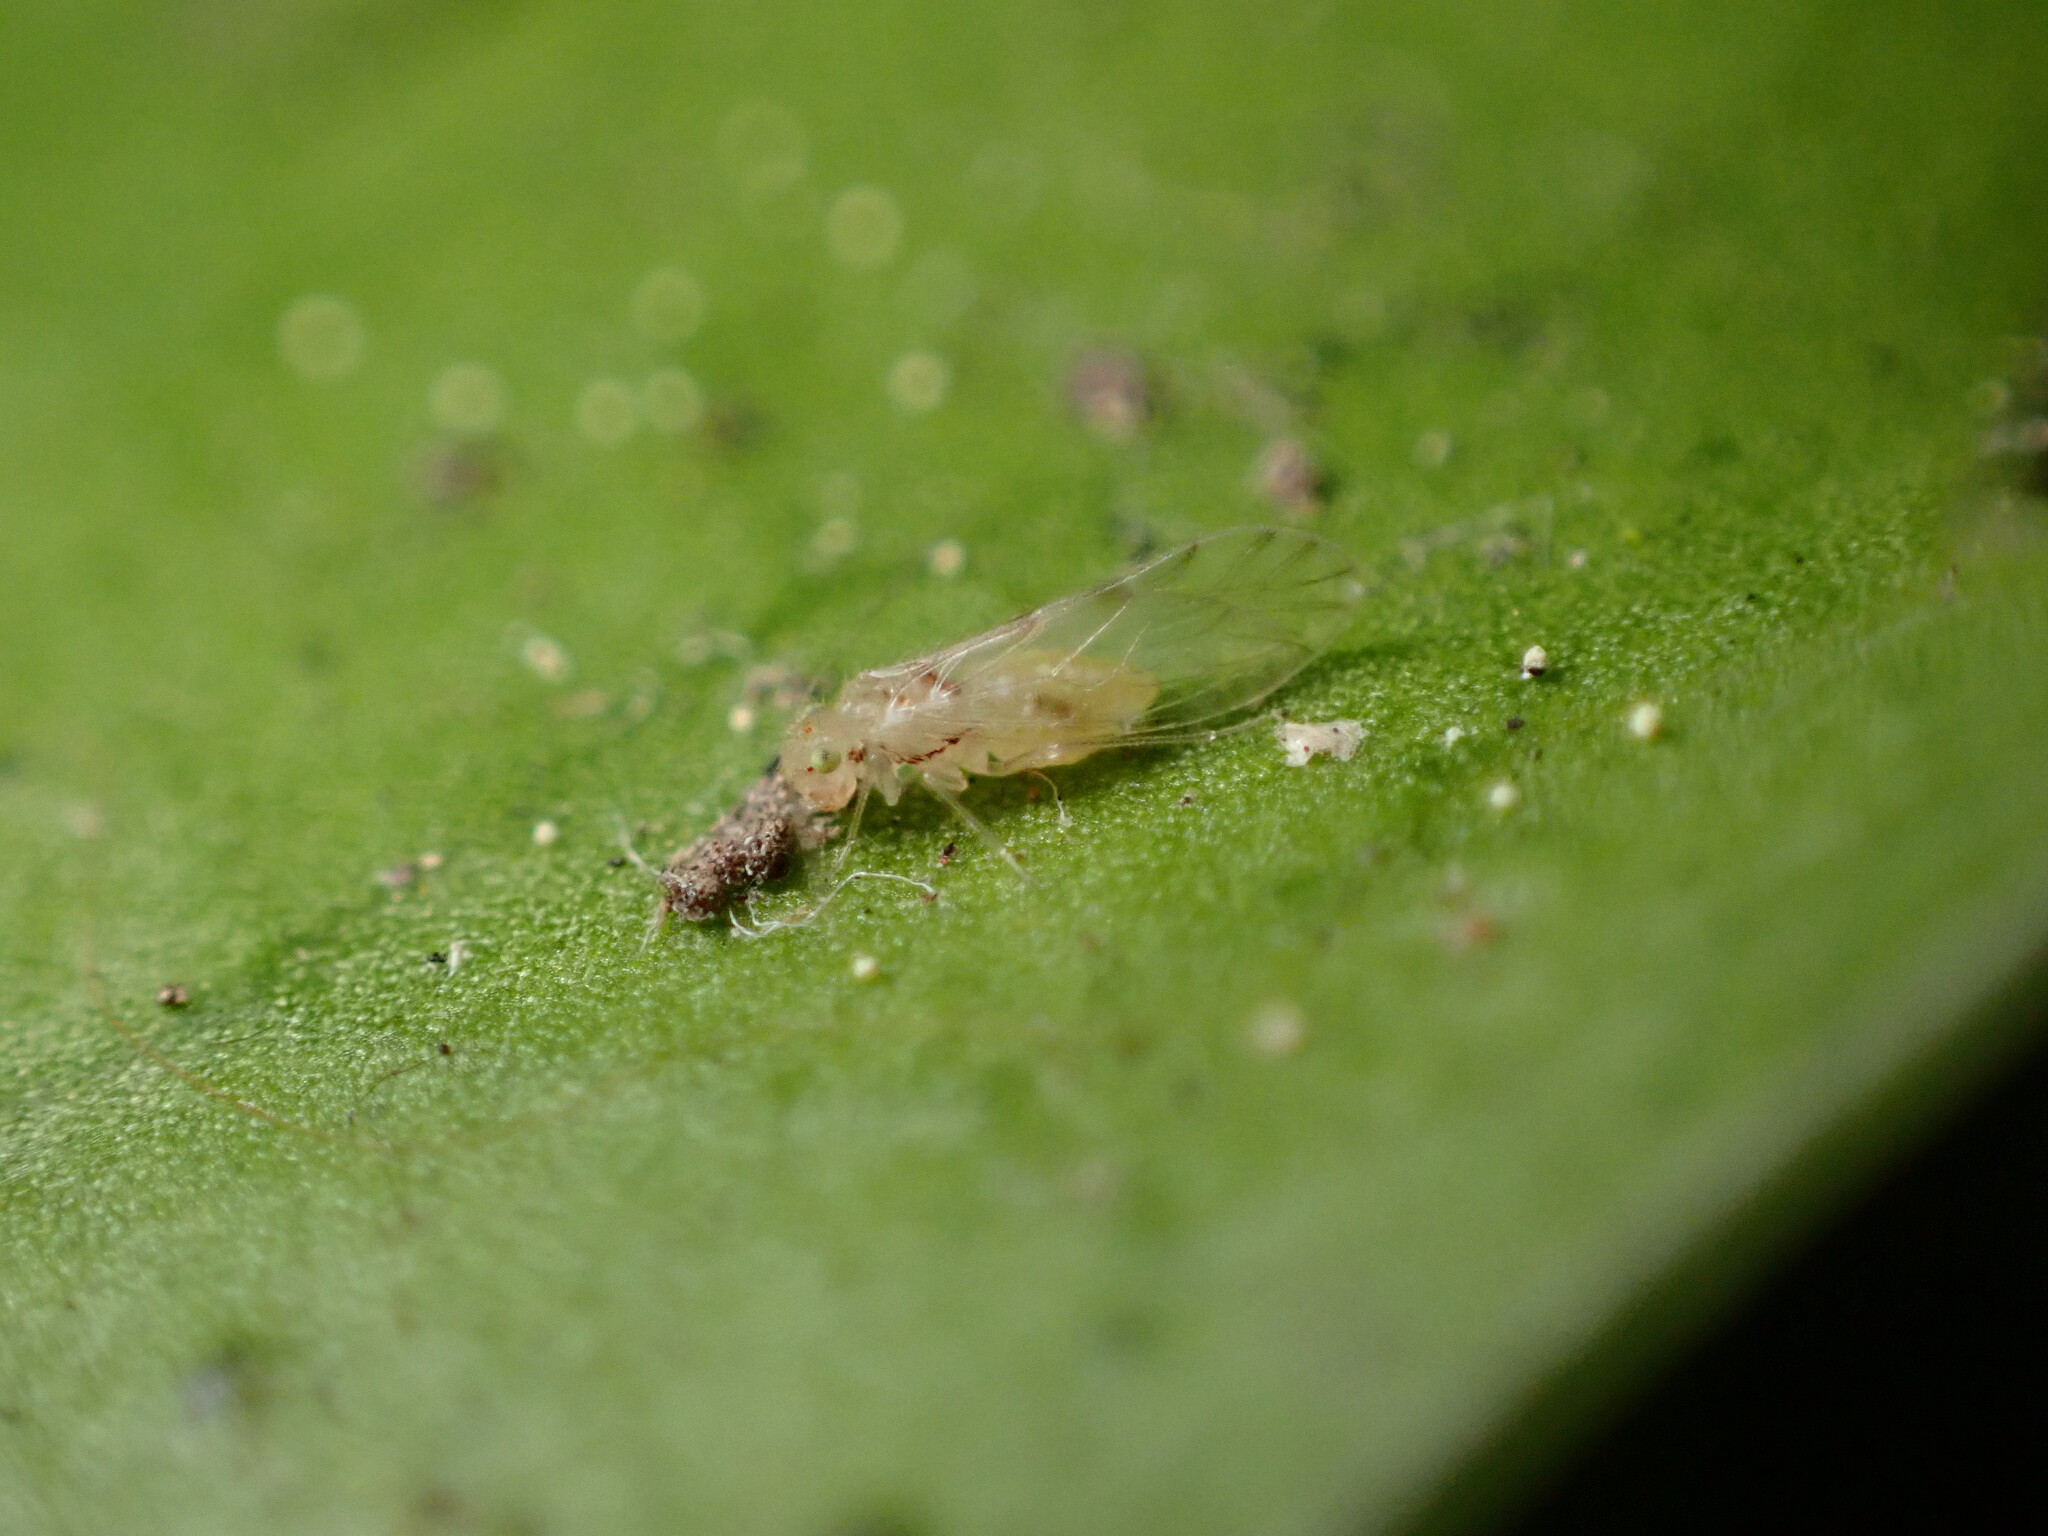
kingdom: Animalia
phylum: Arthropoda
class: Insecta
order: Psocodea
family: Trichopsocidae
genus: Trichopsocus
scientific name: Trichopsocus clarus
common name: Lash-faced psocid
